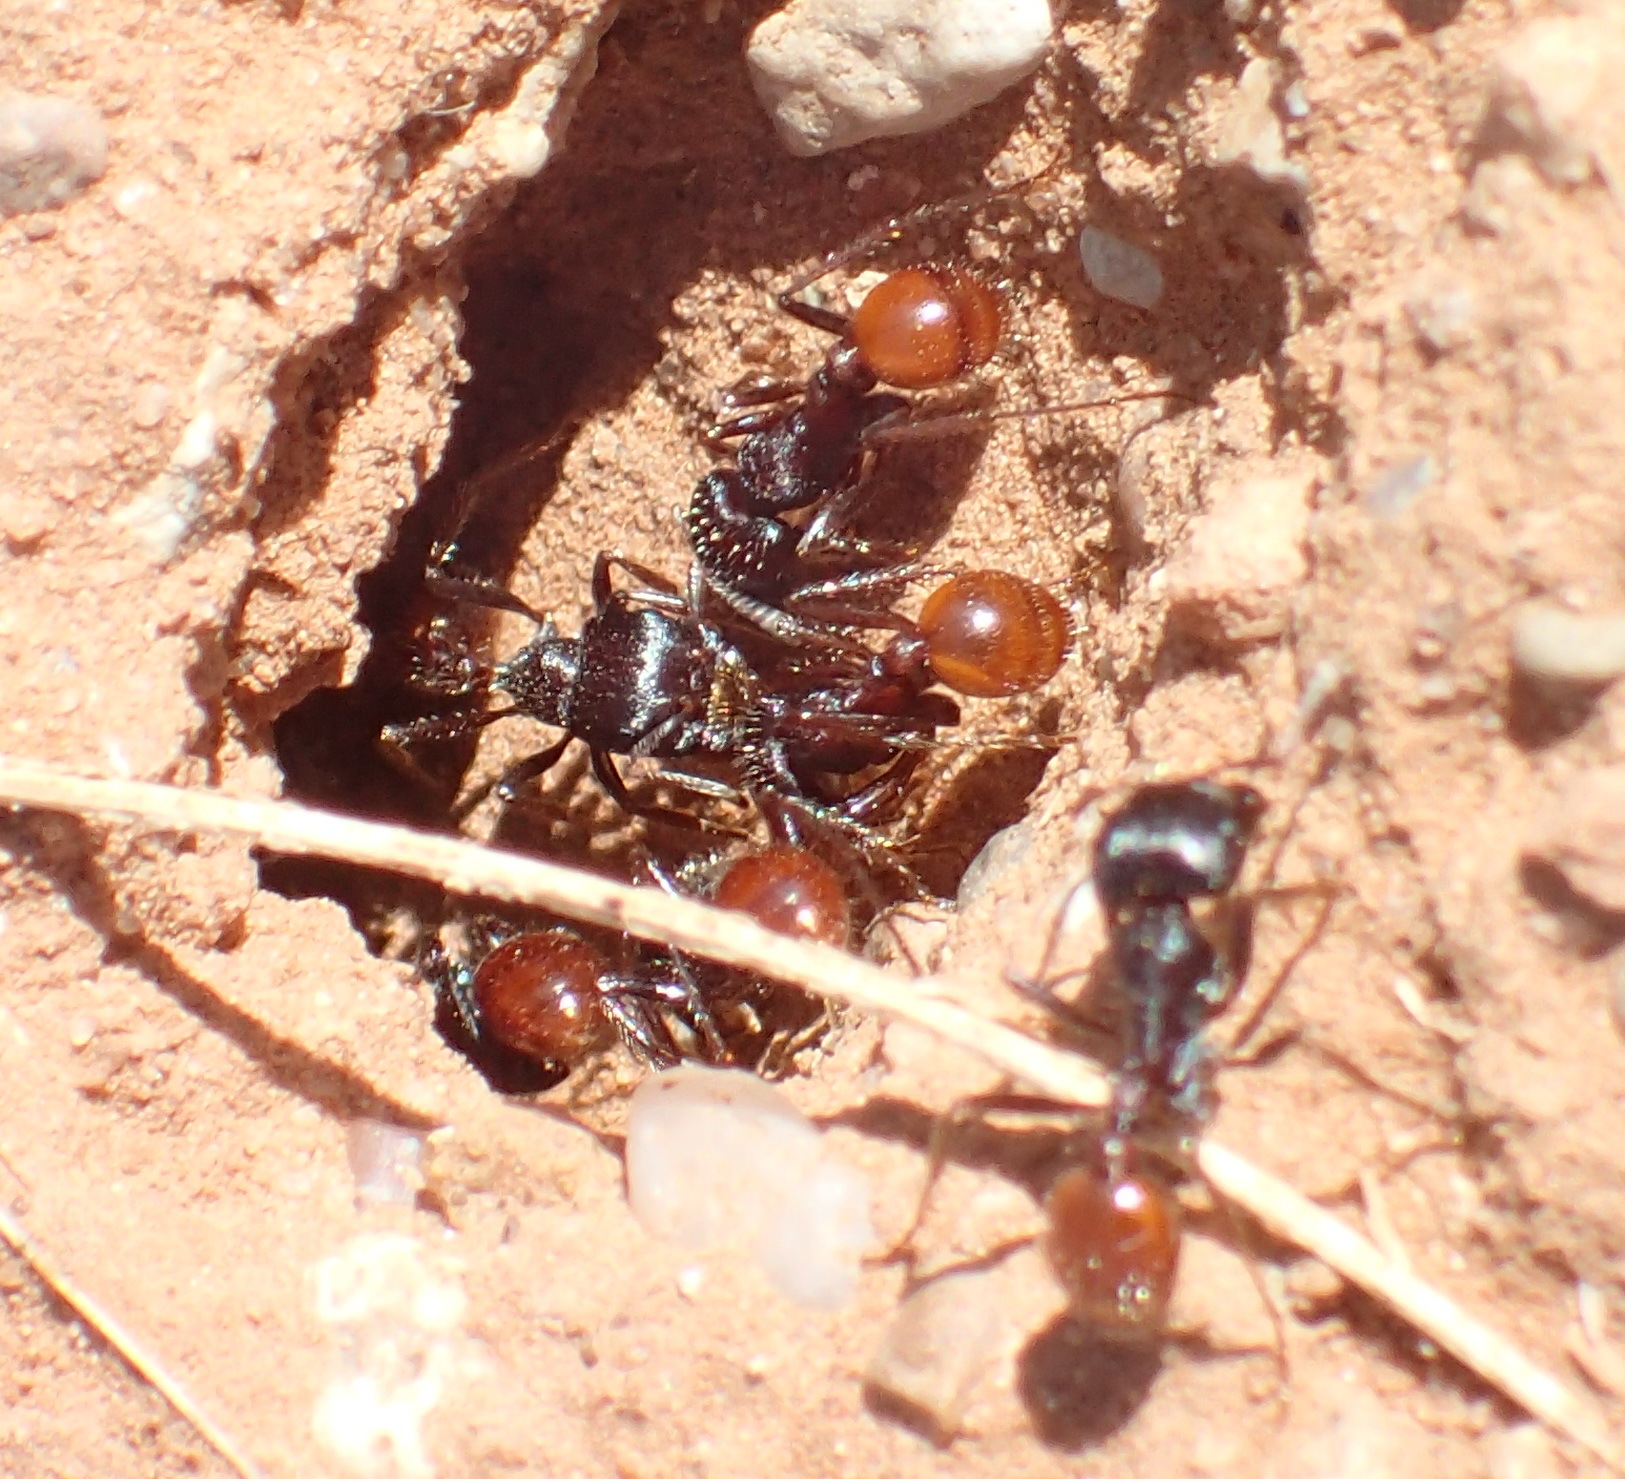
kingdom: Animalia
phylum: Arthropoda
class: Insecta
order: Hymenoptera
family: Formicidae
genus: Pogonomyrmex
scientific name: Pogonomyrmex rugosus
